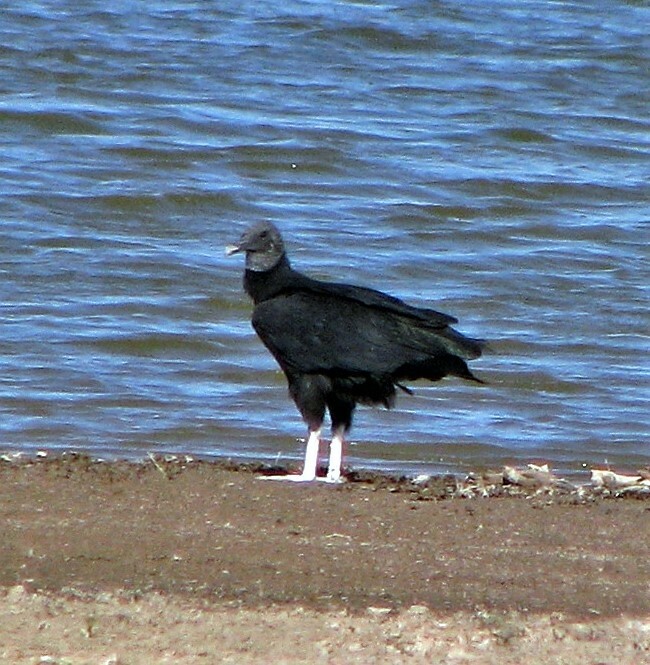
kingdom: Animalia
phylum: Chordata
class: Aves
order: Accipitriformes
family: Cathartidae
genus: Coragyps
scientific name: Coragyps atratus
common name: Black vulture
